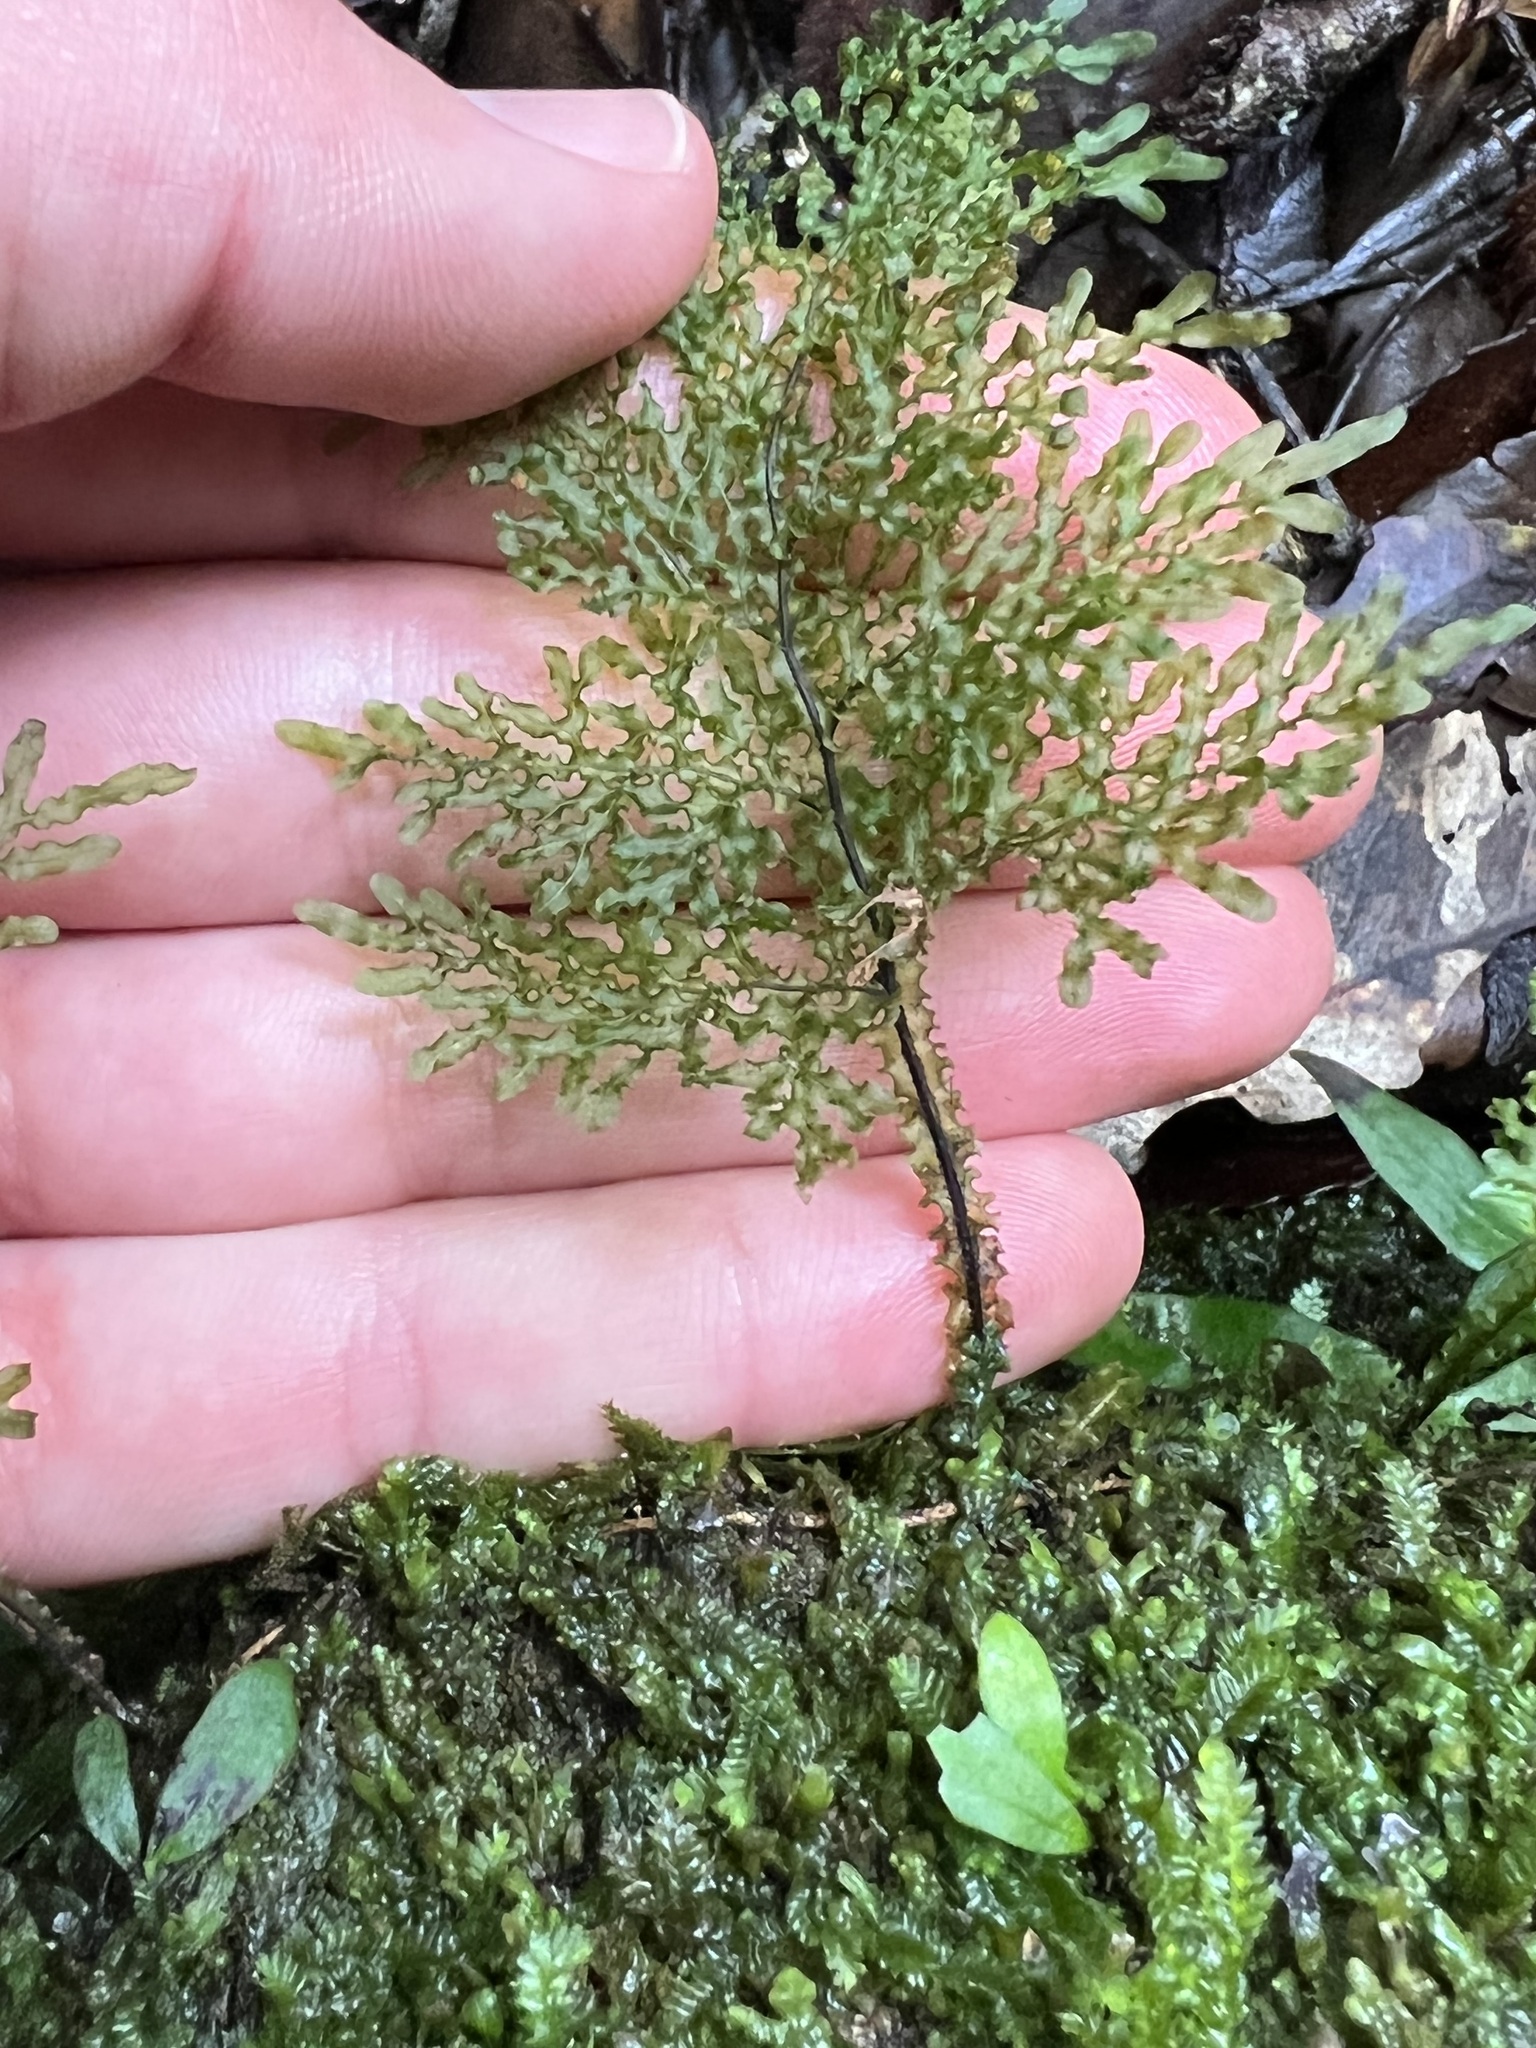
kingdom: Plantae
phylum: Tracheophyta
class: Polypodiopsida
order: Hymenophyllales
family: Hymenophyllaceae
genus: Hymenophyllum
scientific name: Hymenophyllum flexuosum
